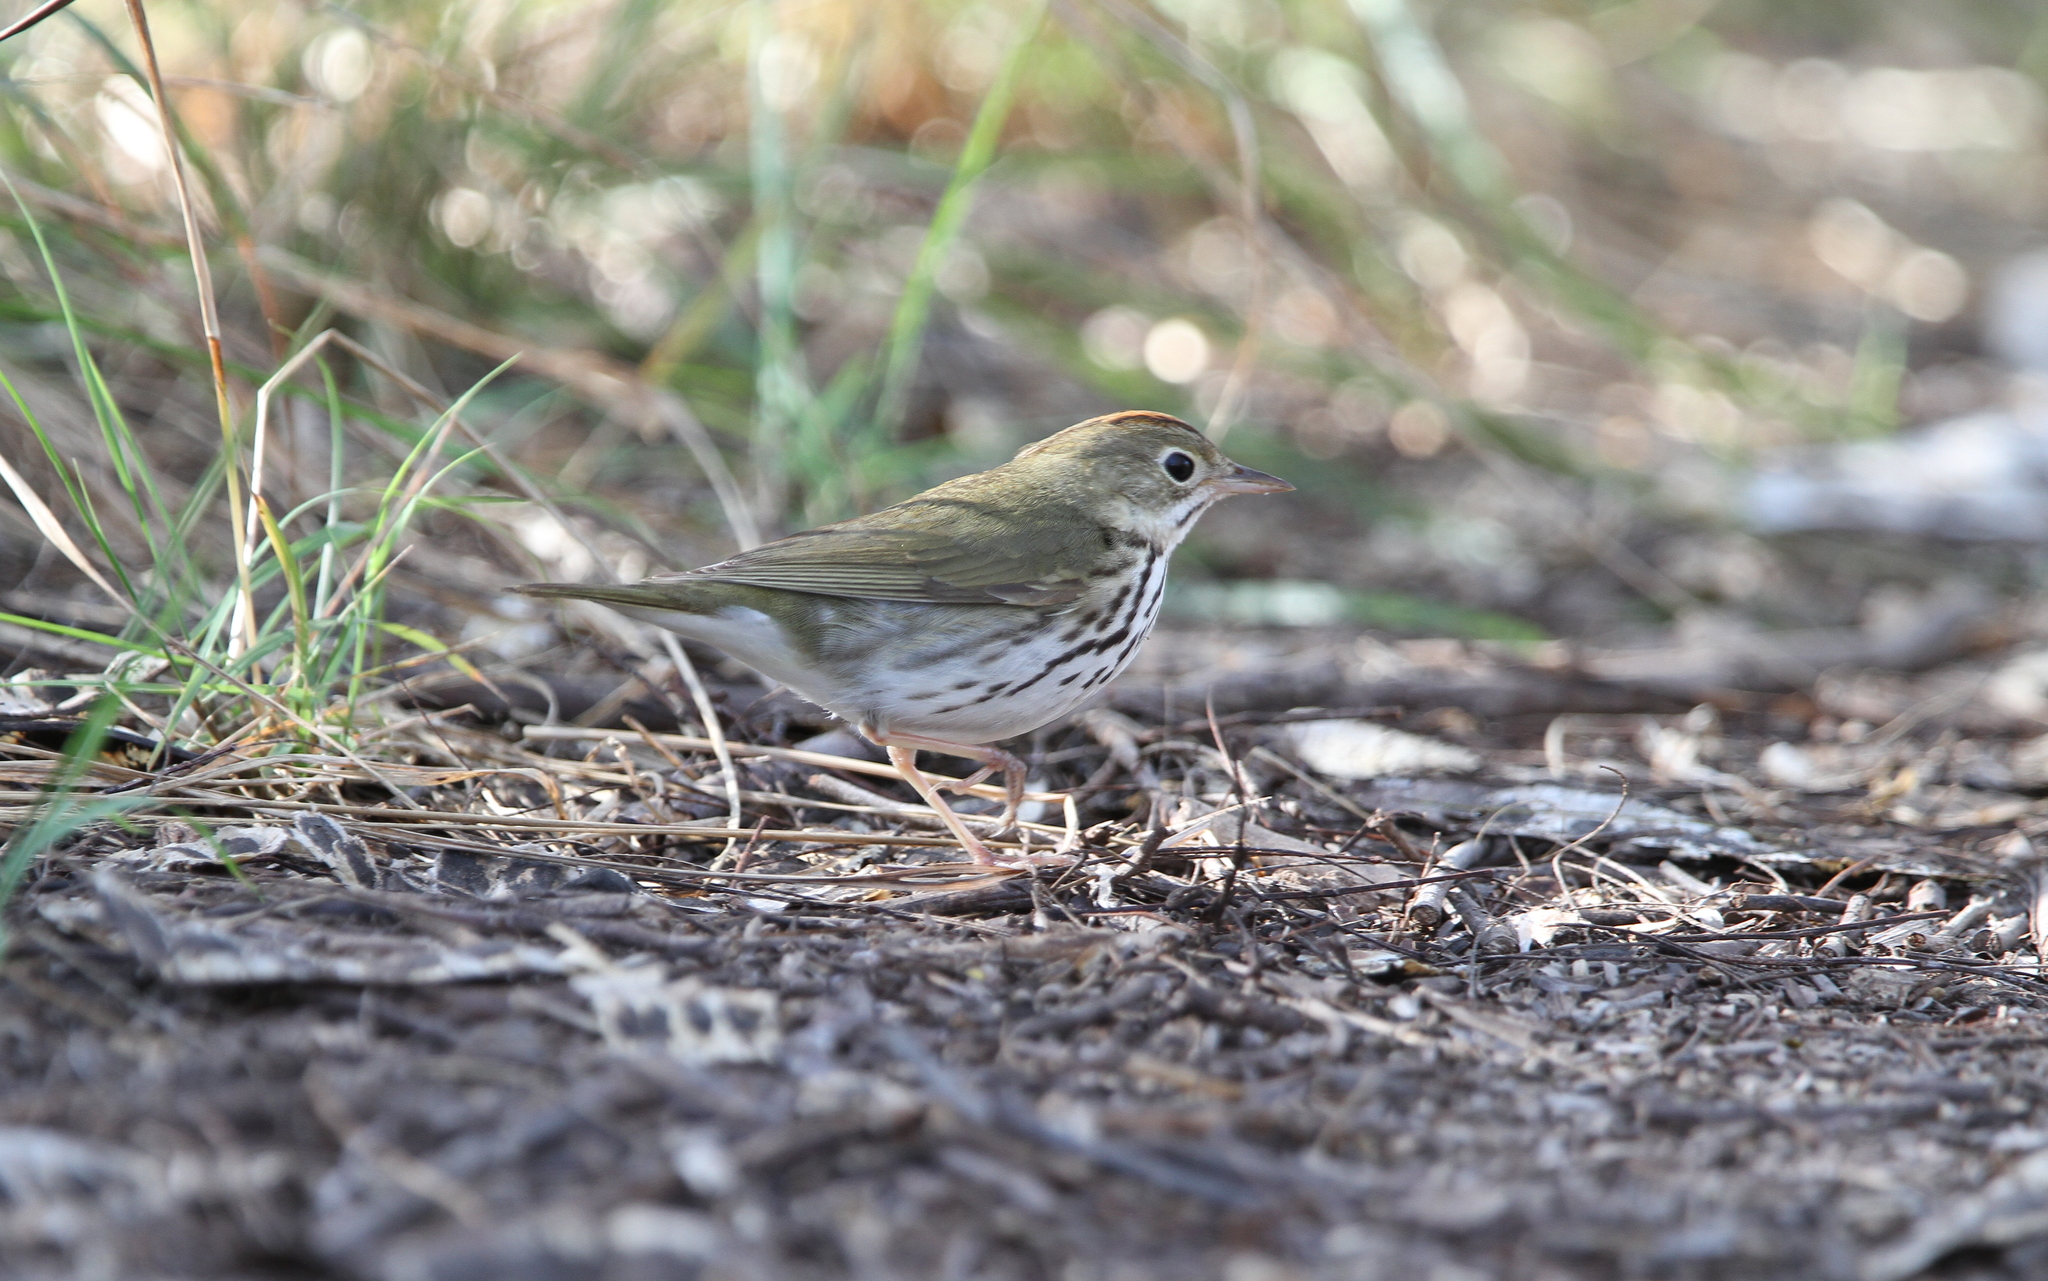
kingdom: Animalia
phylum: Chordata
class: Aves
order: Passeriformes
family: Parulidae
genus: Seiurus
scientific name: Seiurus aurocapilla
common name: Ovenbird
